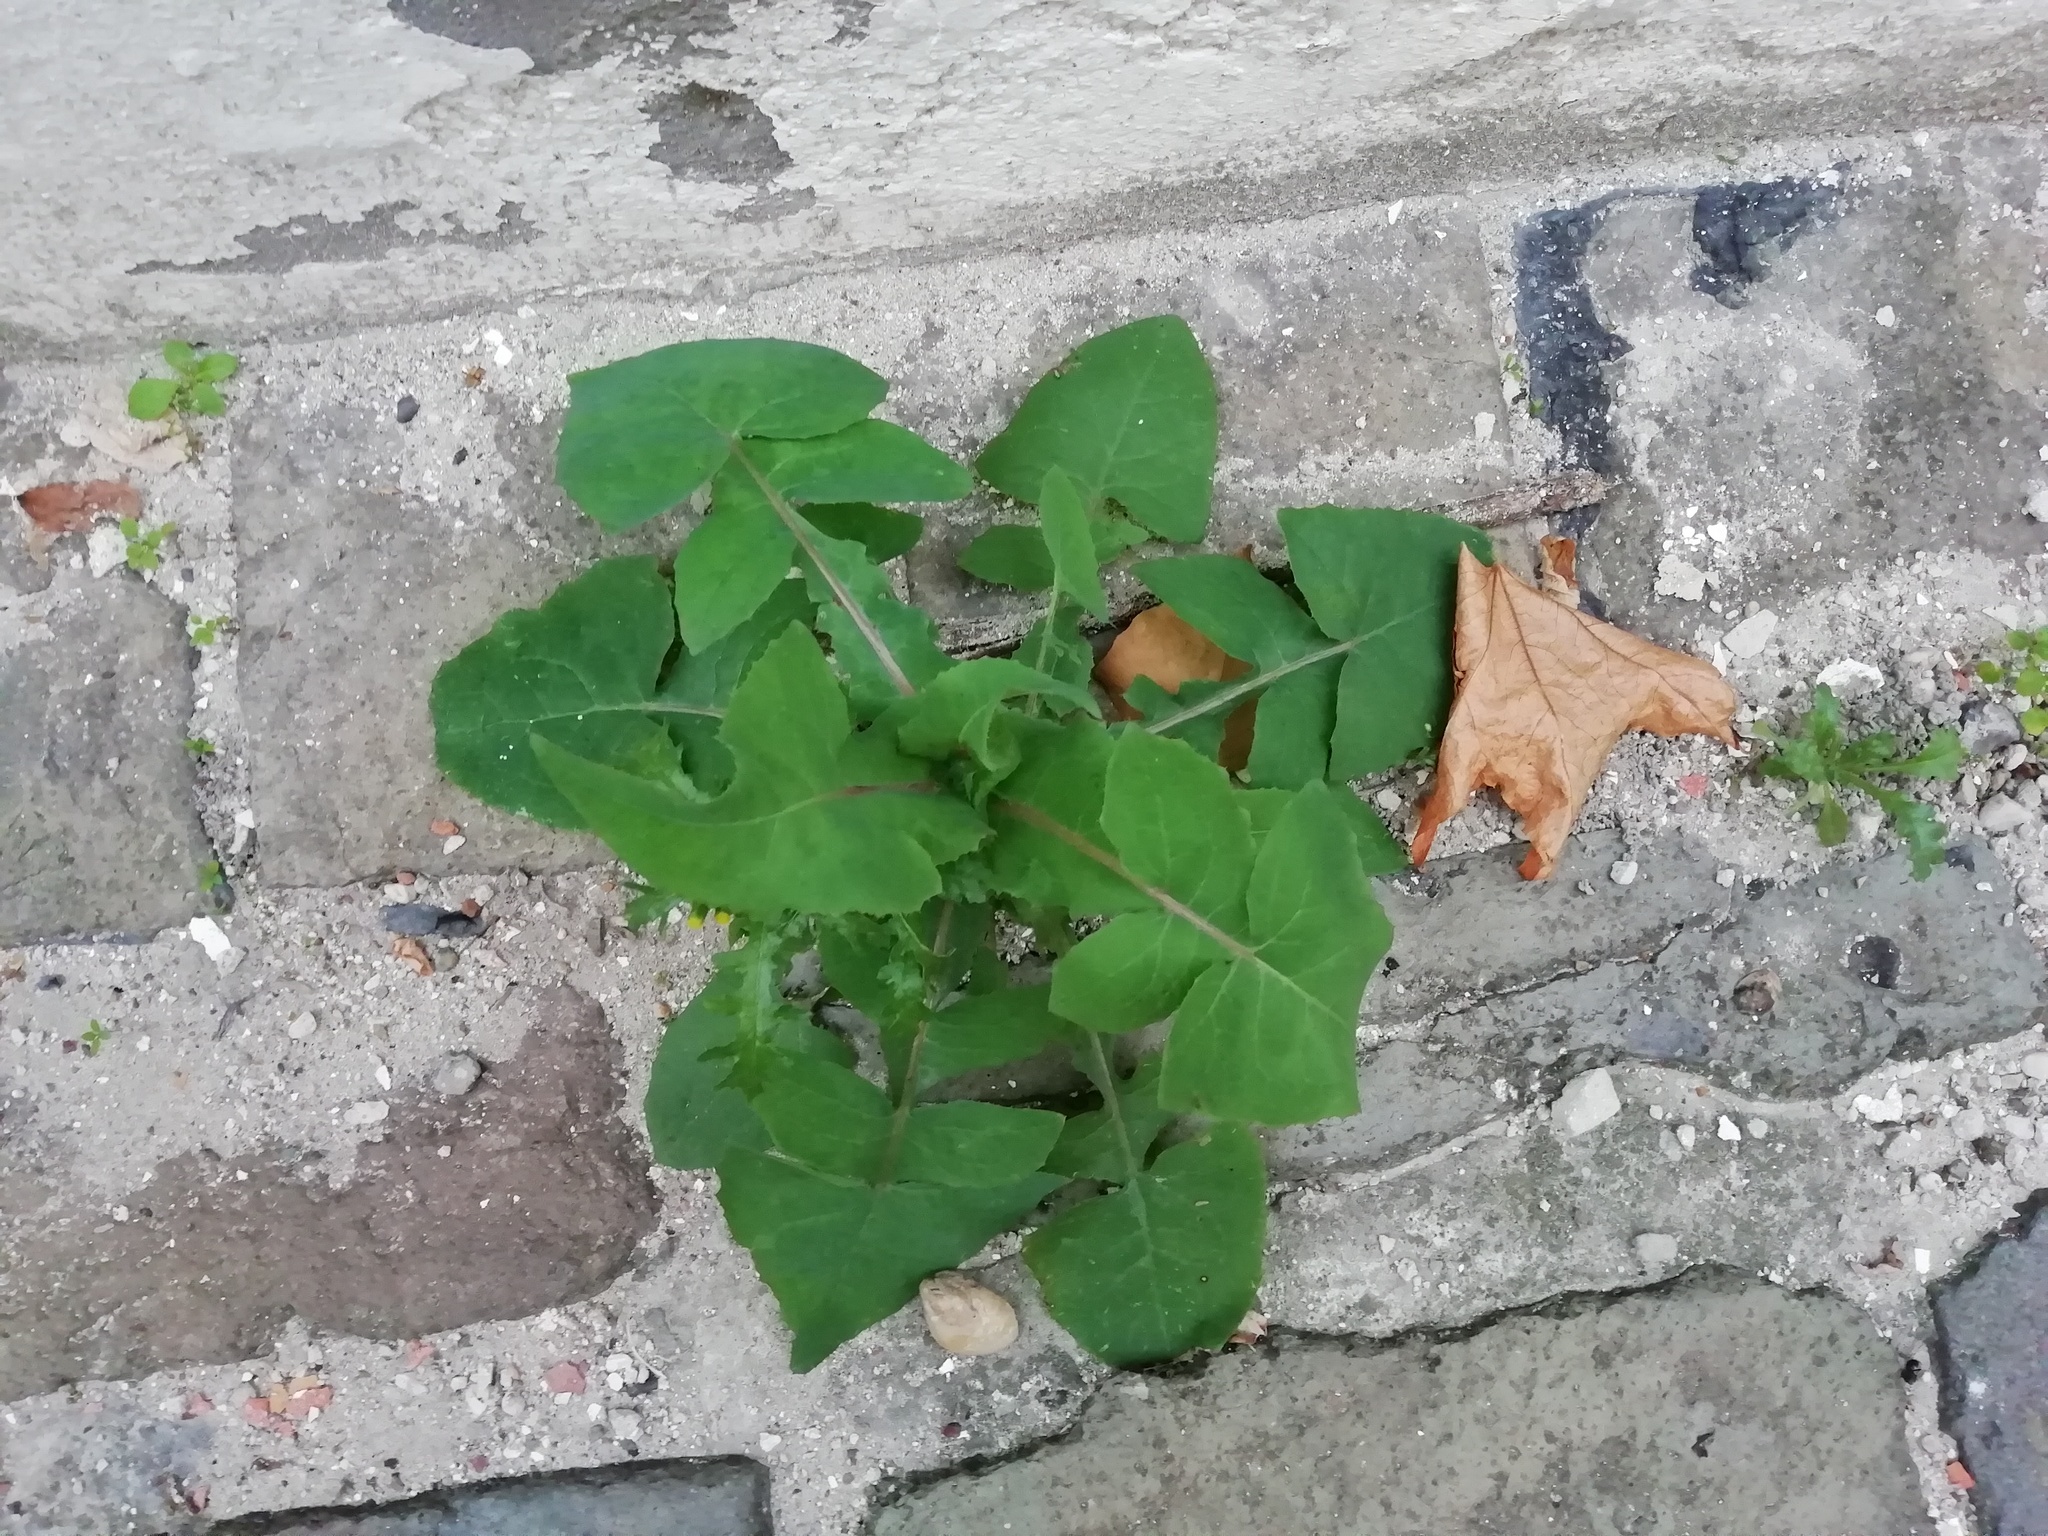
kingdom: Plantae
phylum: Tracheophyta
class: Magnoliopsida
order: Asterales
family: Asteraceae
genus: Sonchus
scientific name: Sonchus oleraceus
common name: Common sowthistle
